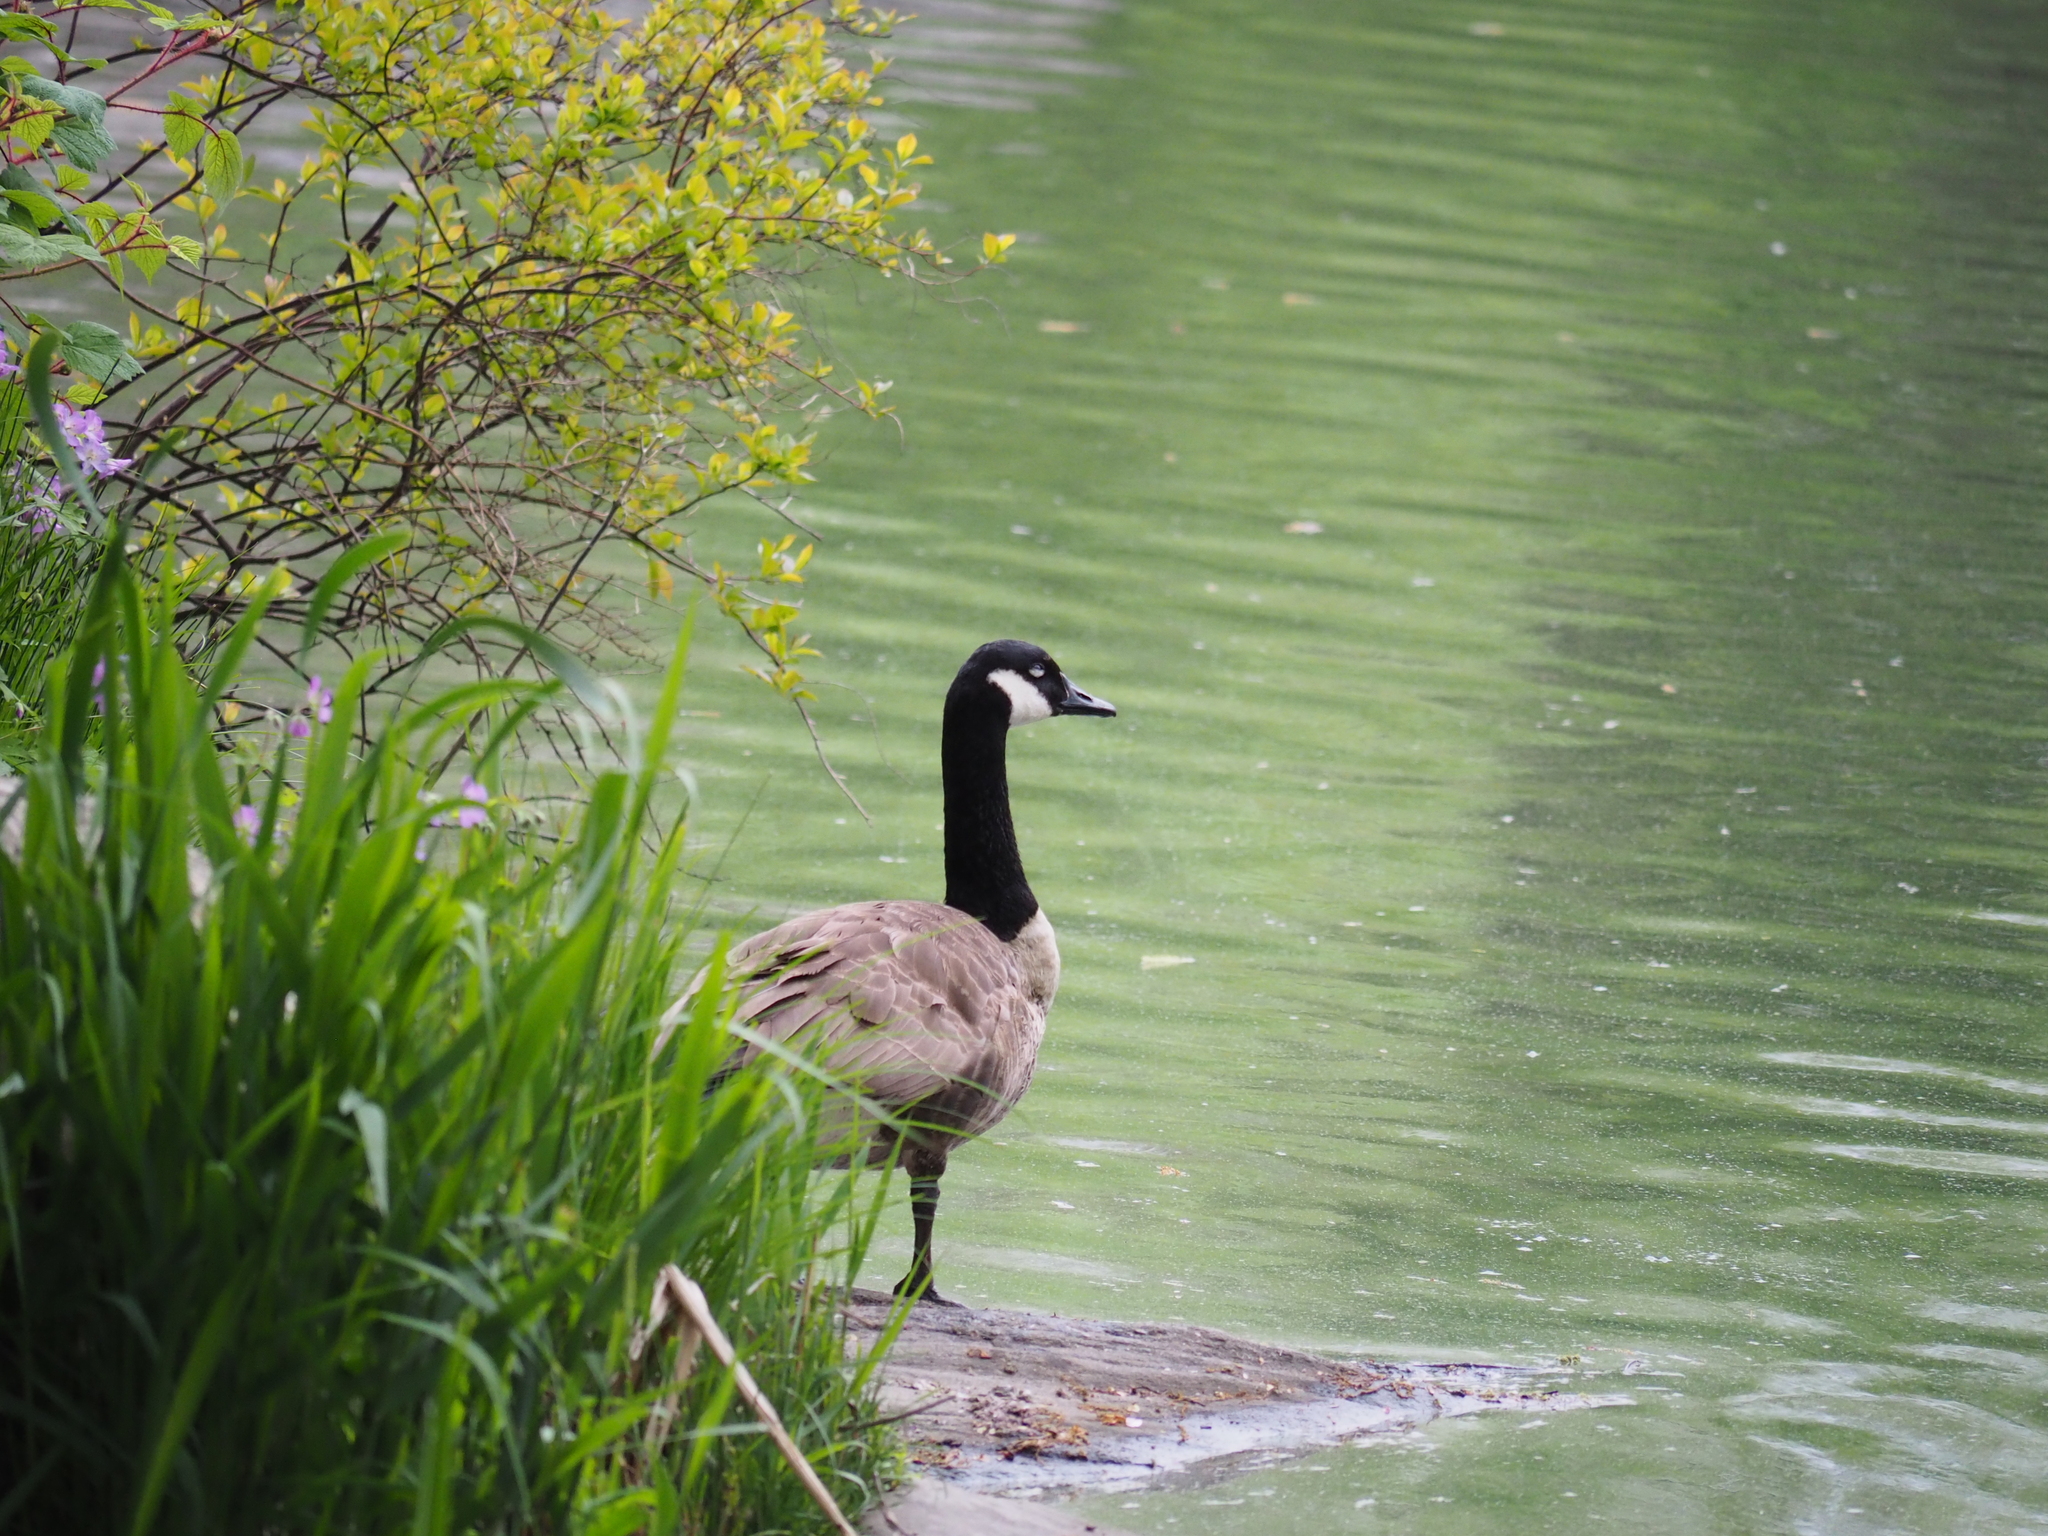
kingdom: Animalia
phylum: Chordata
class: Aves
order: Anseriformes
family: Anatidae
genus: Branta
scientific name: Branta canadensis
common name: Canada goose
